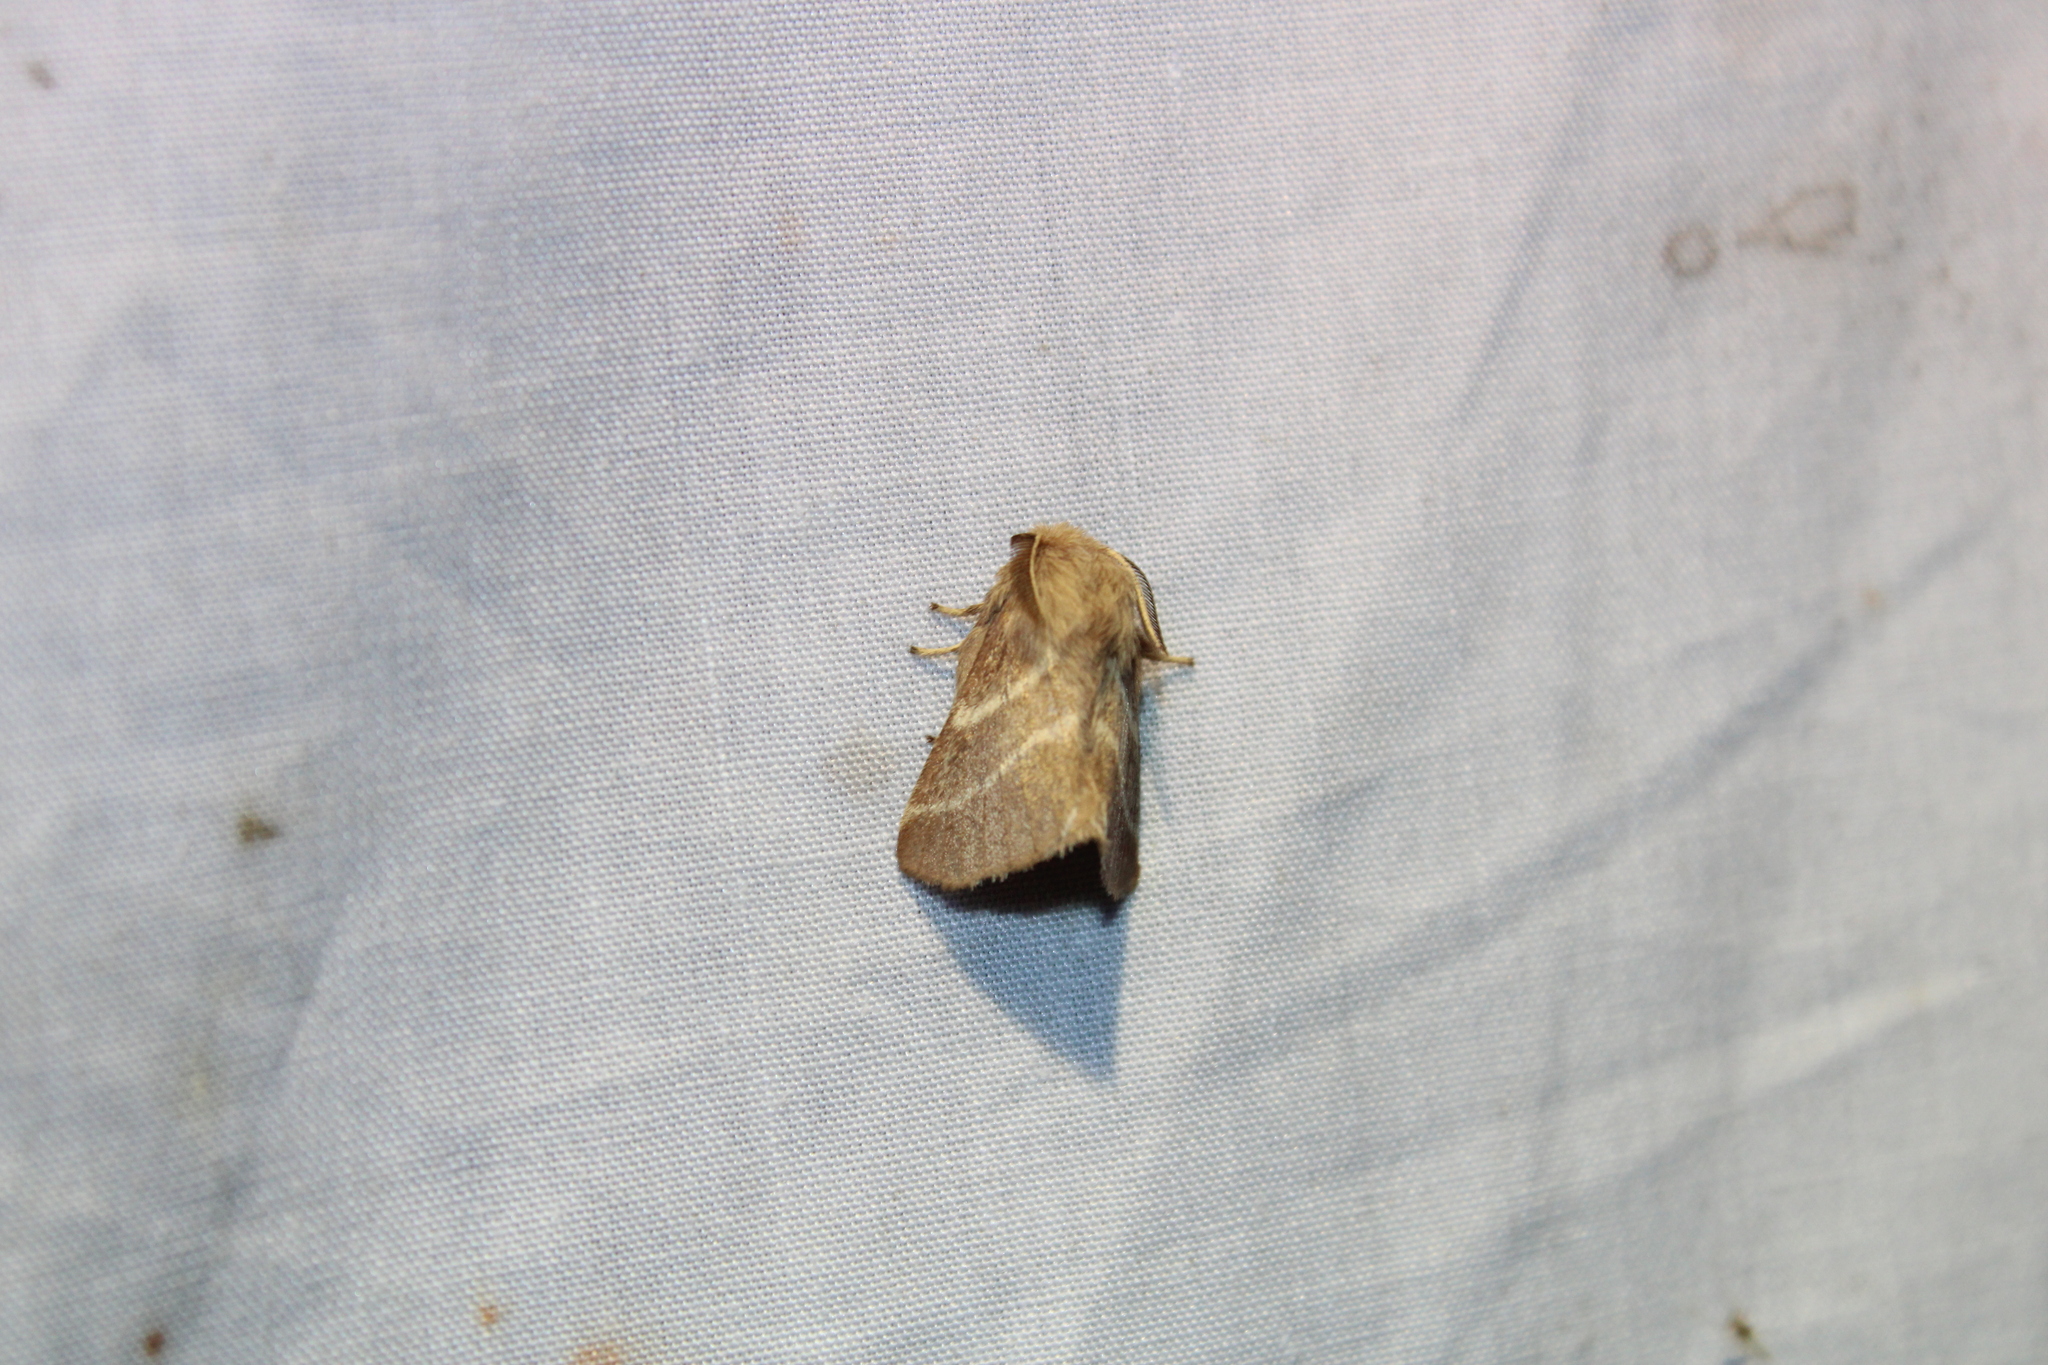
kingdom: Animalia
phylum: Arthropoda
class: Insecta
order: Lepidoptera
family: Lasiocampidae
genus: Malacosoma
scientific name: Malacosoma americana
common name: Eastern tent caterpillar moth
